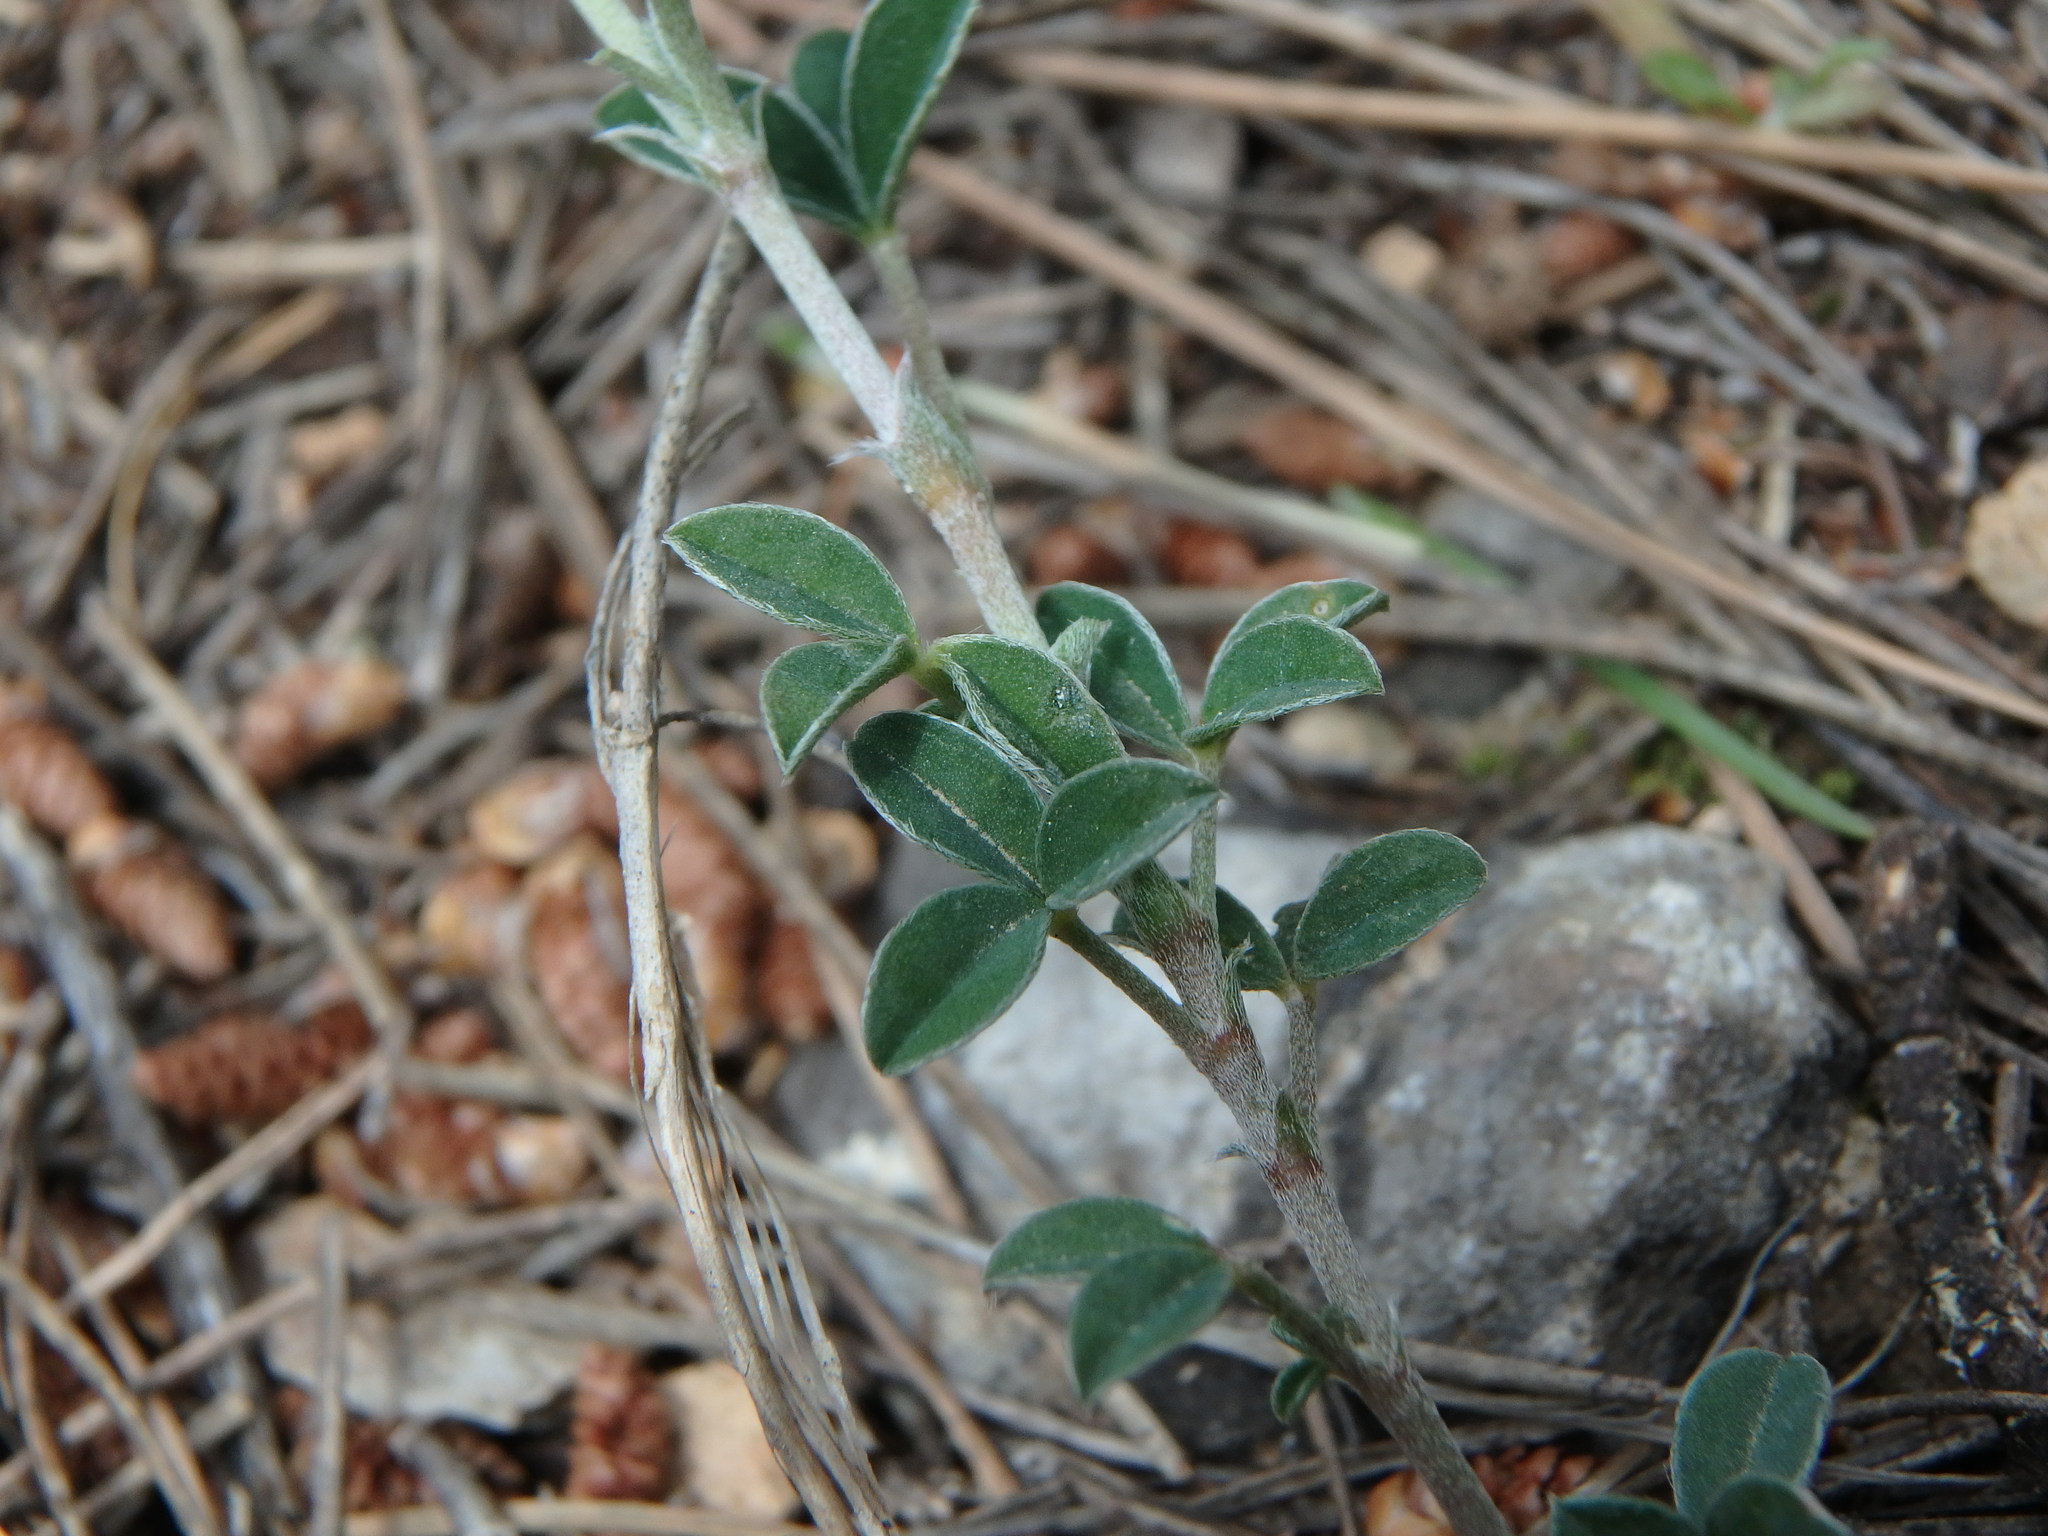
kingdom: Plantae
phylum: Tracheophyta
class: Magnoliopsida
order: Fabales
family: Fabaceae
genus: Argyrolobium
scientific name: Argyrolobium zanonii
